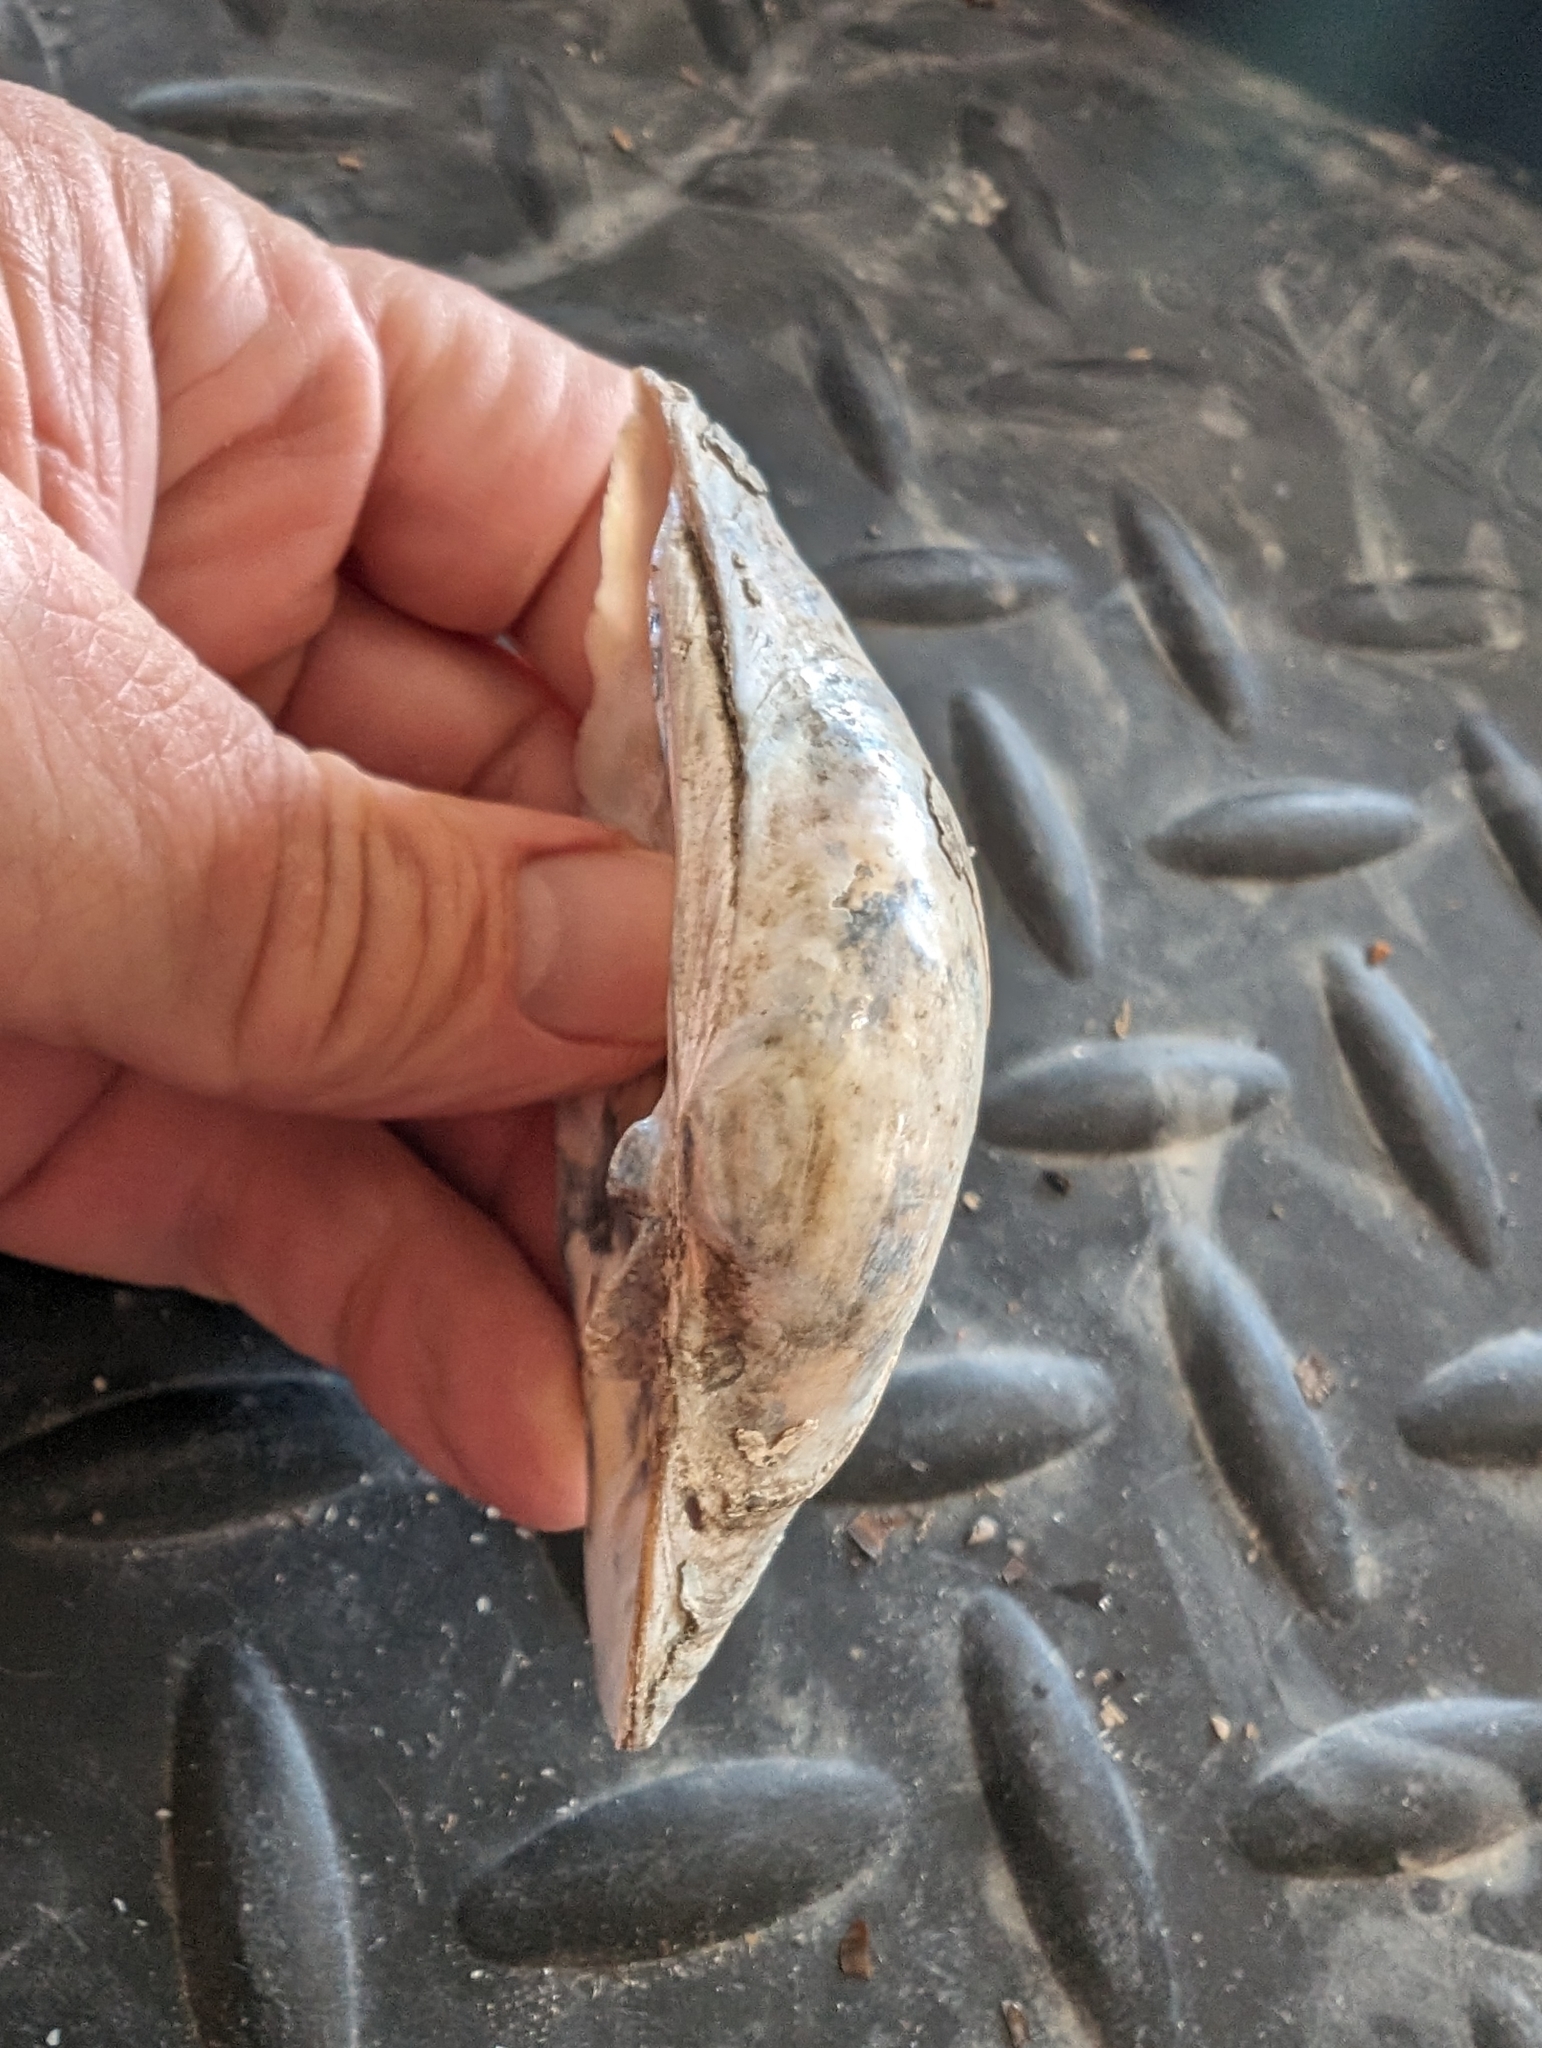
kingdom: Animalia
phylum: Mollusca
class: Bivalvia
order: Unionida
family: Unionidae
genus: Lampsilis
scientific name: Lampsilis cardium
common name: Plain pocketbook
